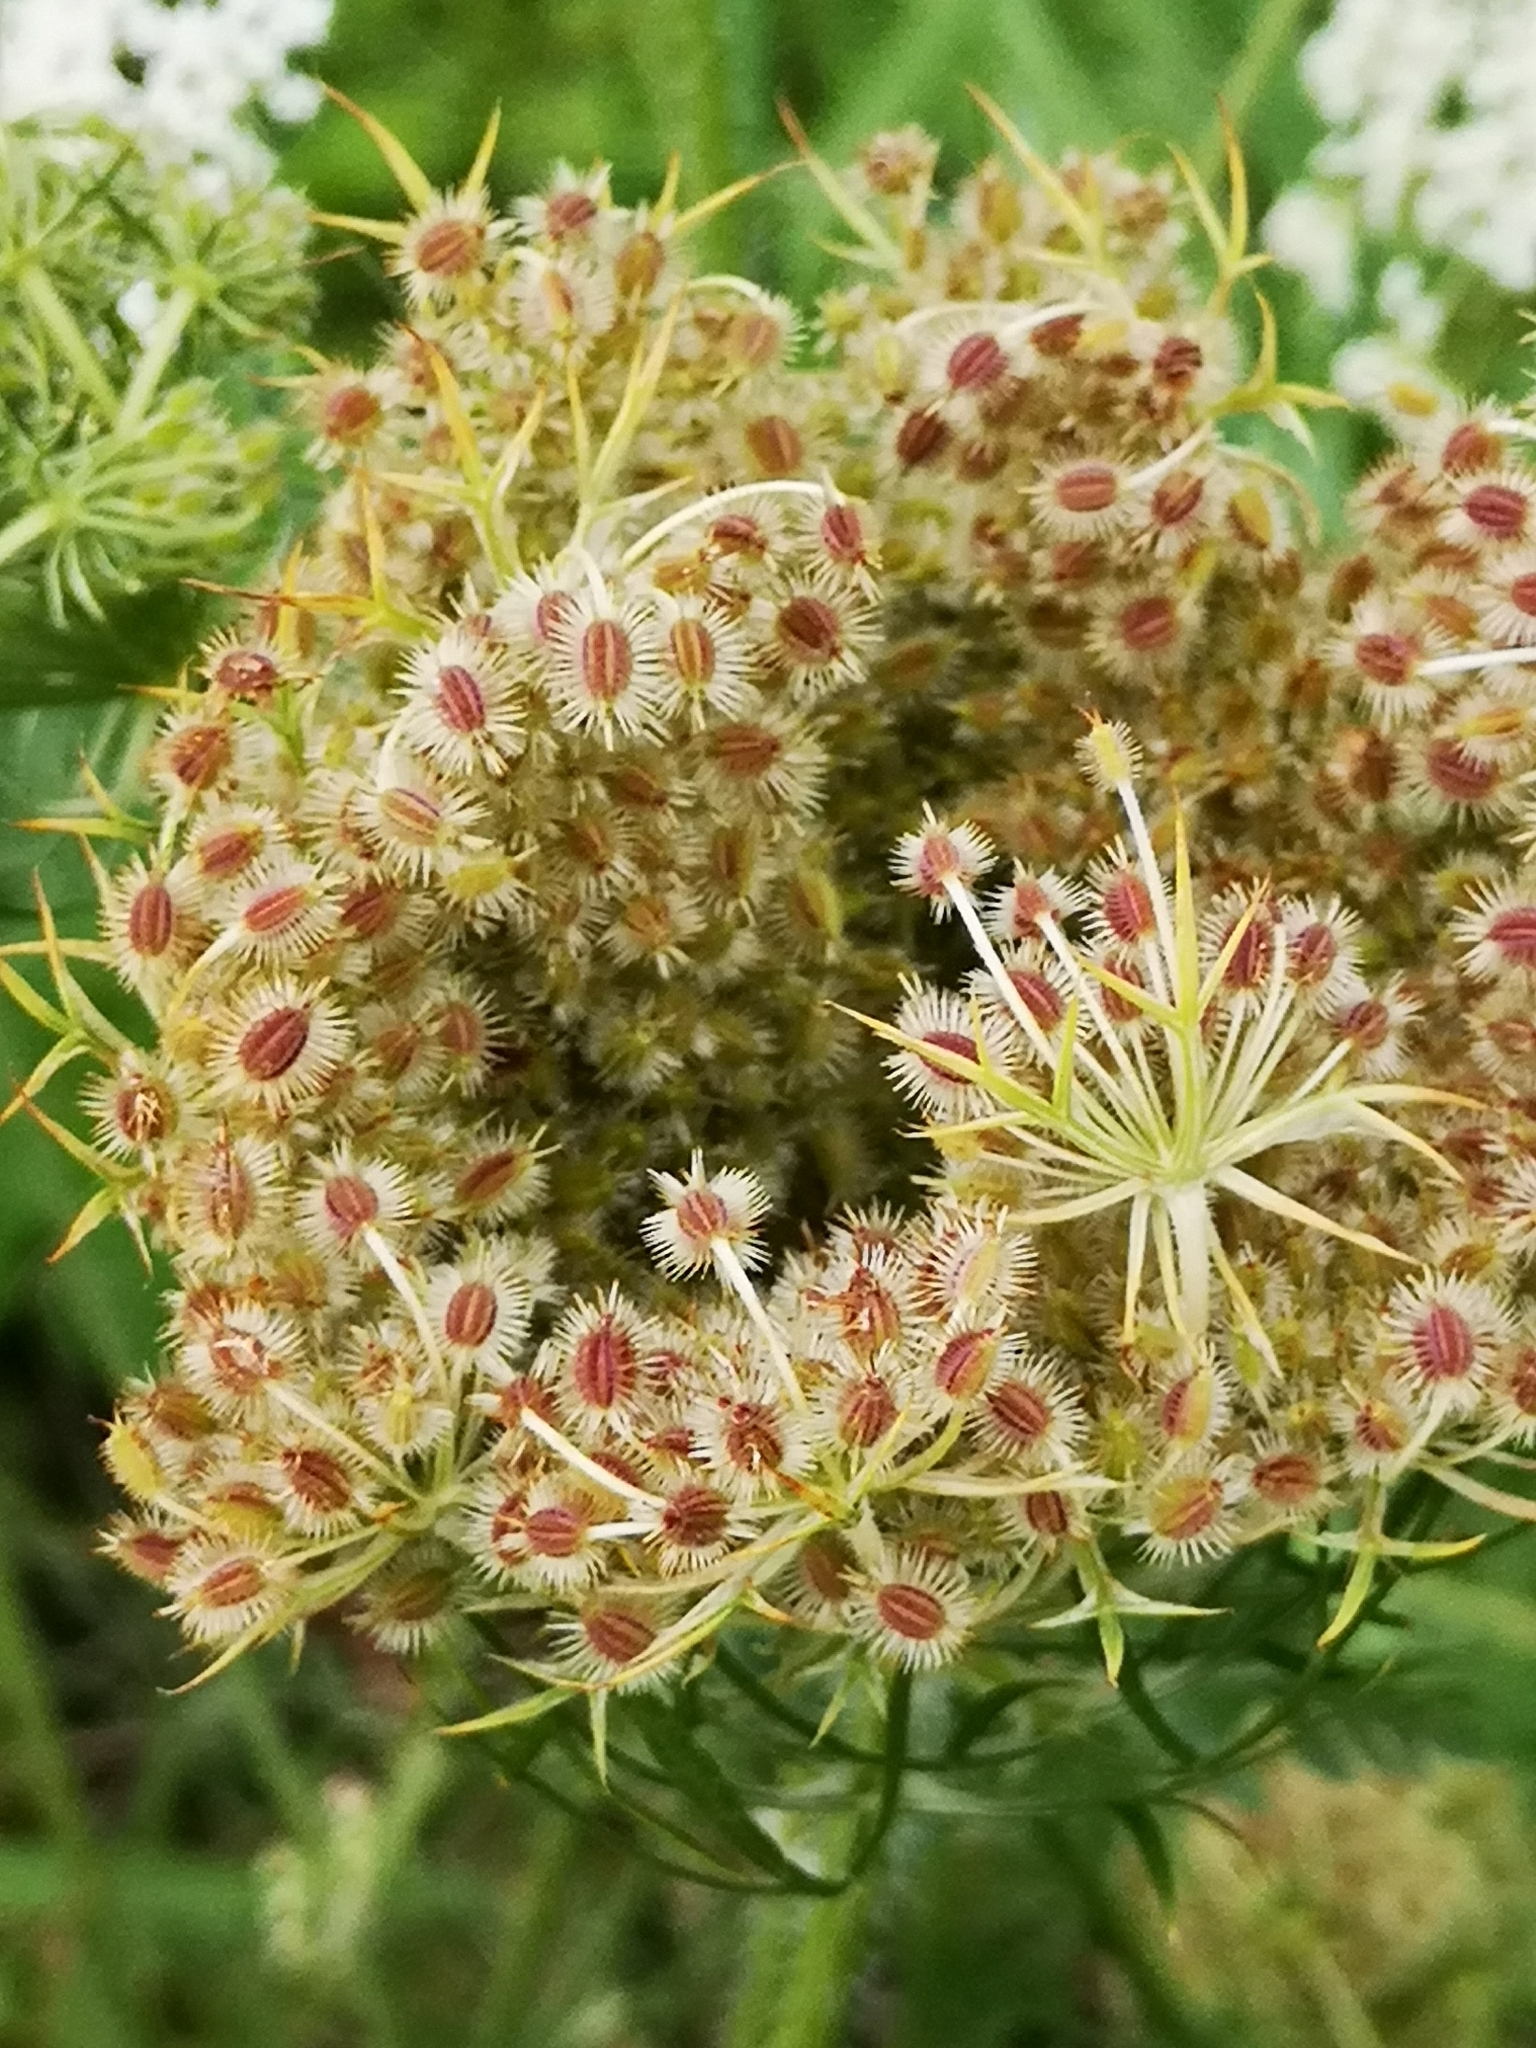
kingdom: Plantae
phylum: Tracheophyta
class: Magnoliopsida
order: Apiales
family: Apiaceae
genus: Daucus
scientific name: Daucus carota
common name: Wild carrot
